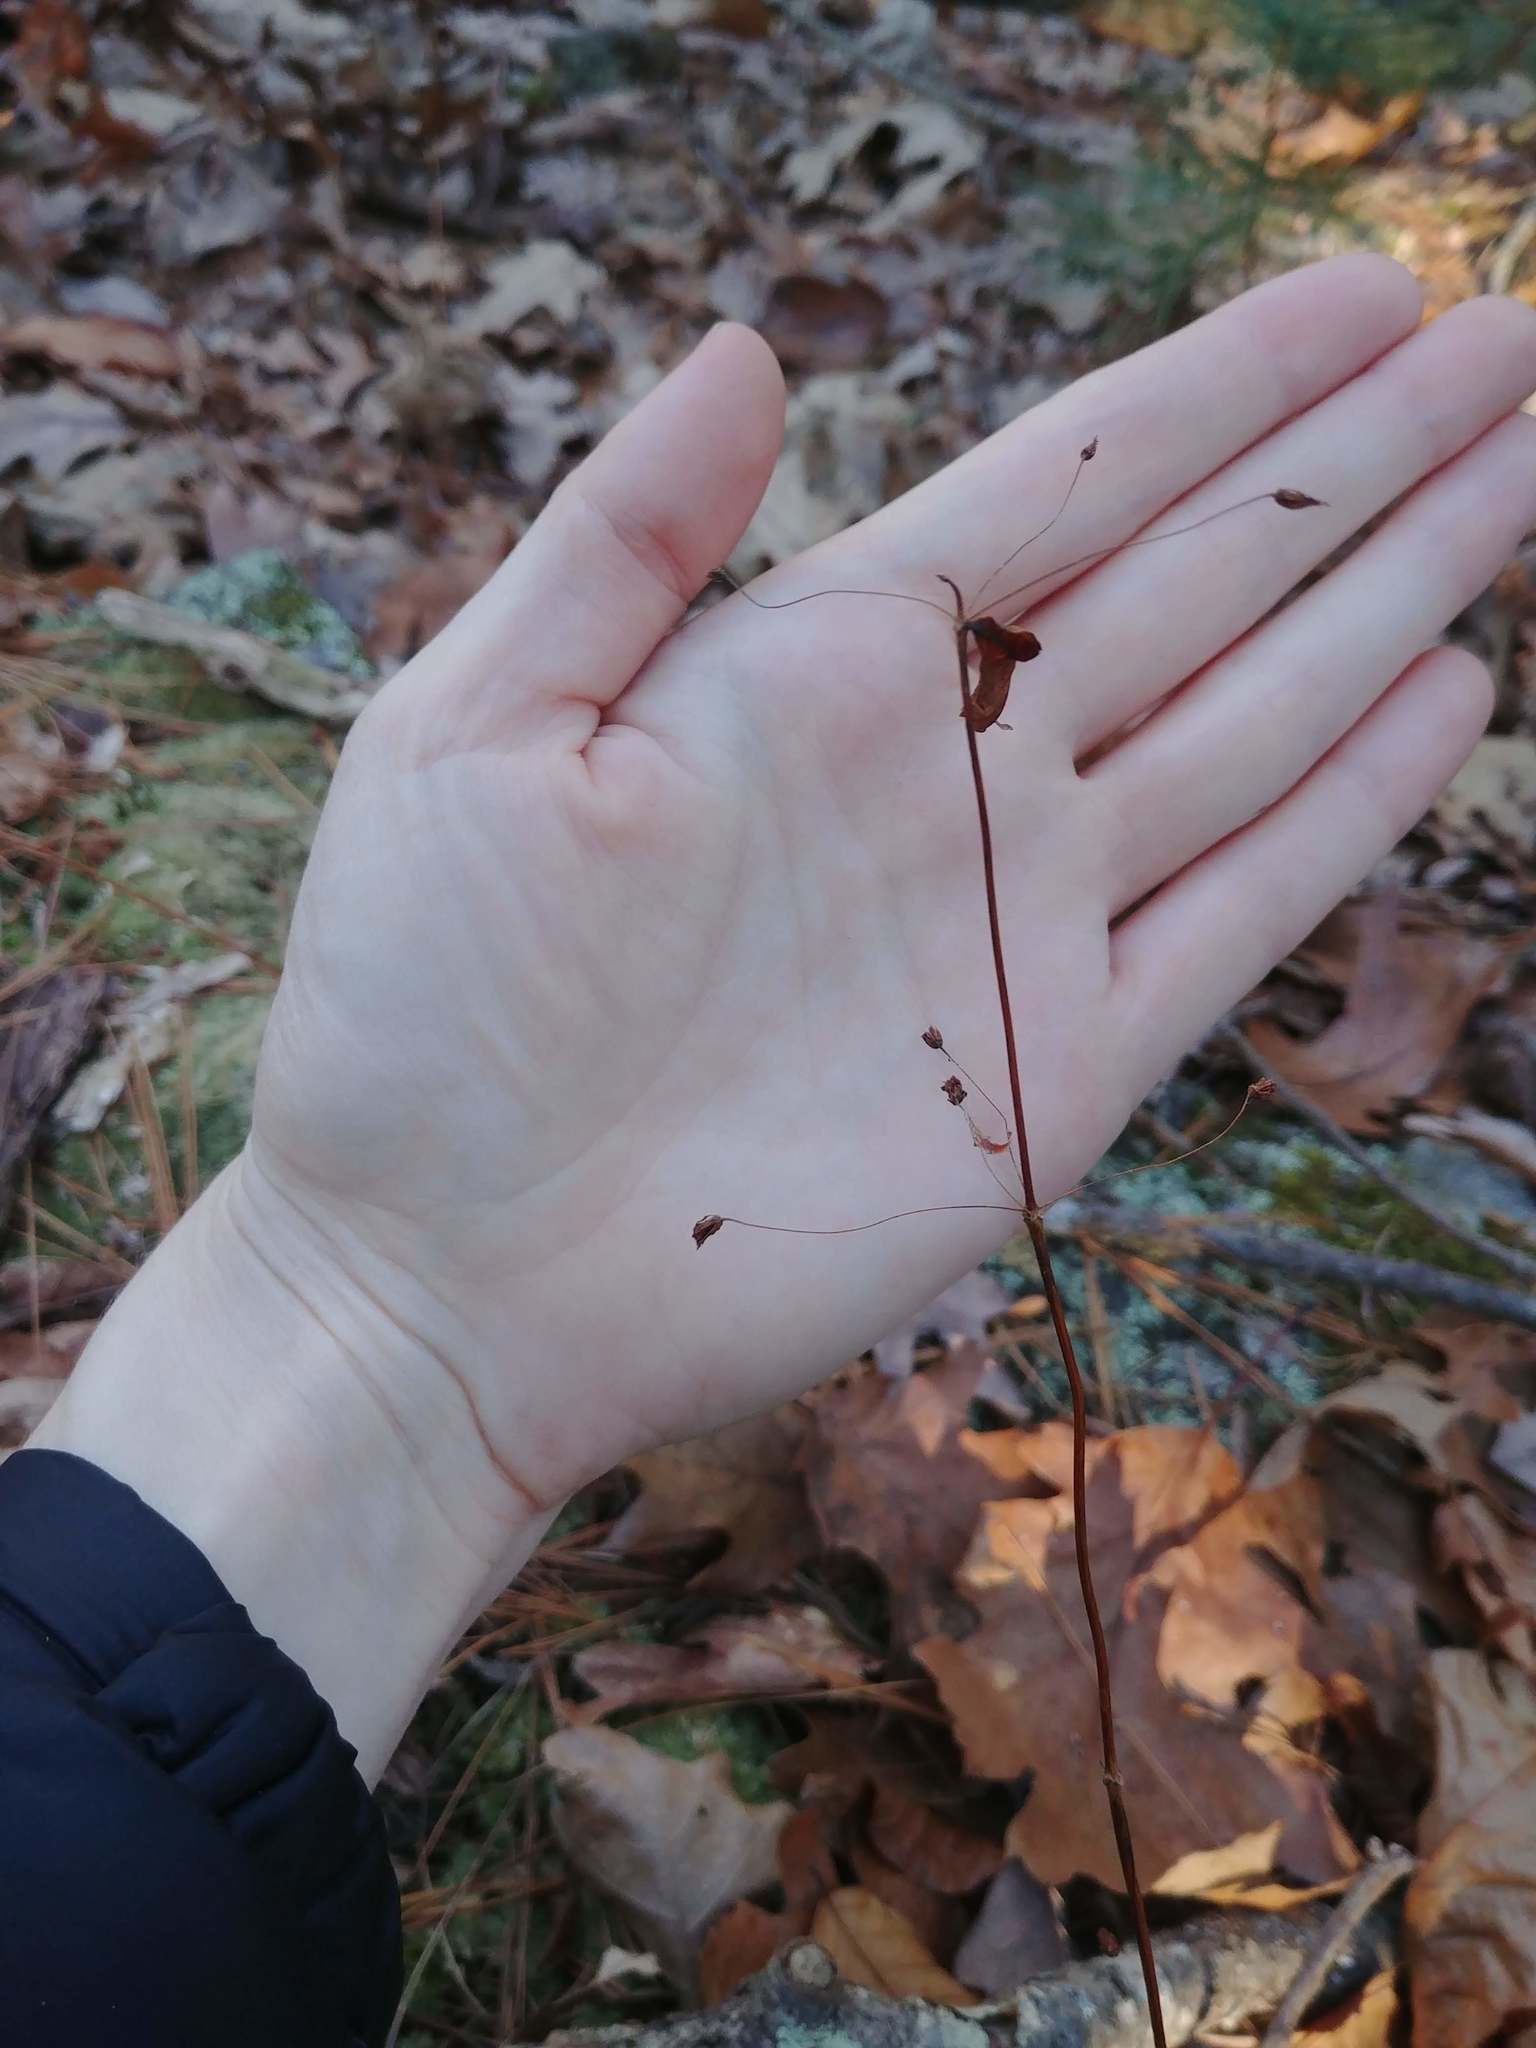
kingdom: Plantae
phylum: Tracheophyta
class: Magnoliopsida
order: Ericales
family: Primulaceae
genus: Lysimachia
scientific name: Lysimachia quadrifolia
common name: Whorled loosestrife
